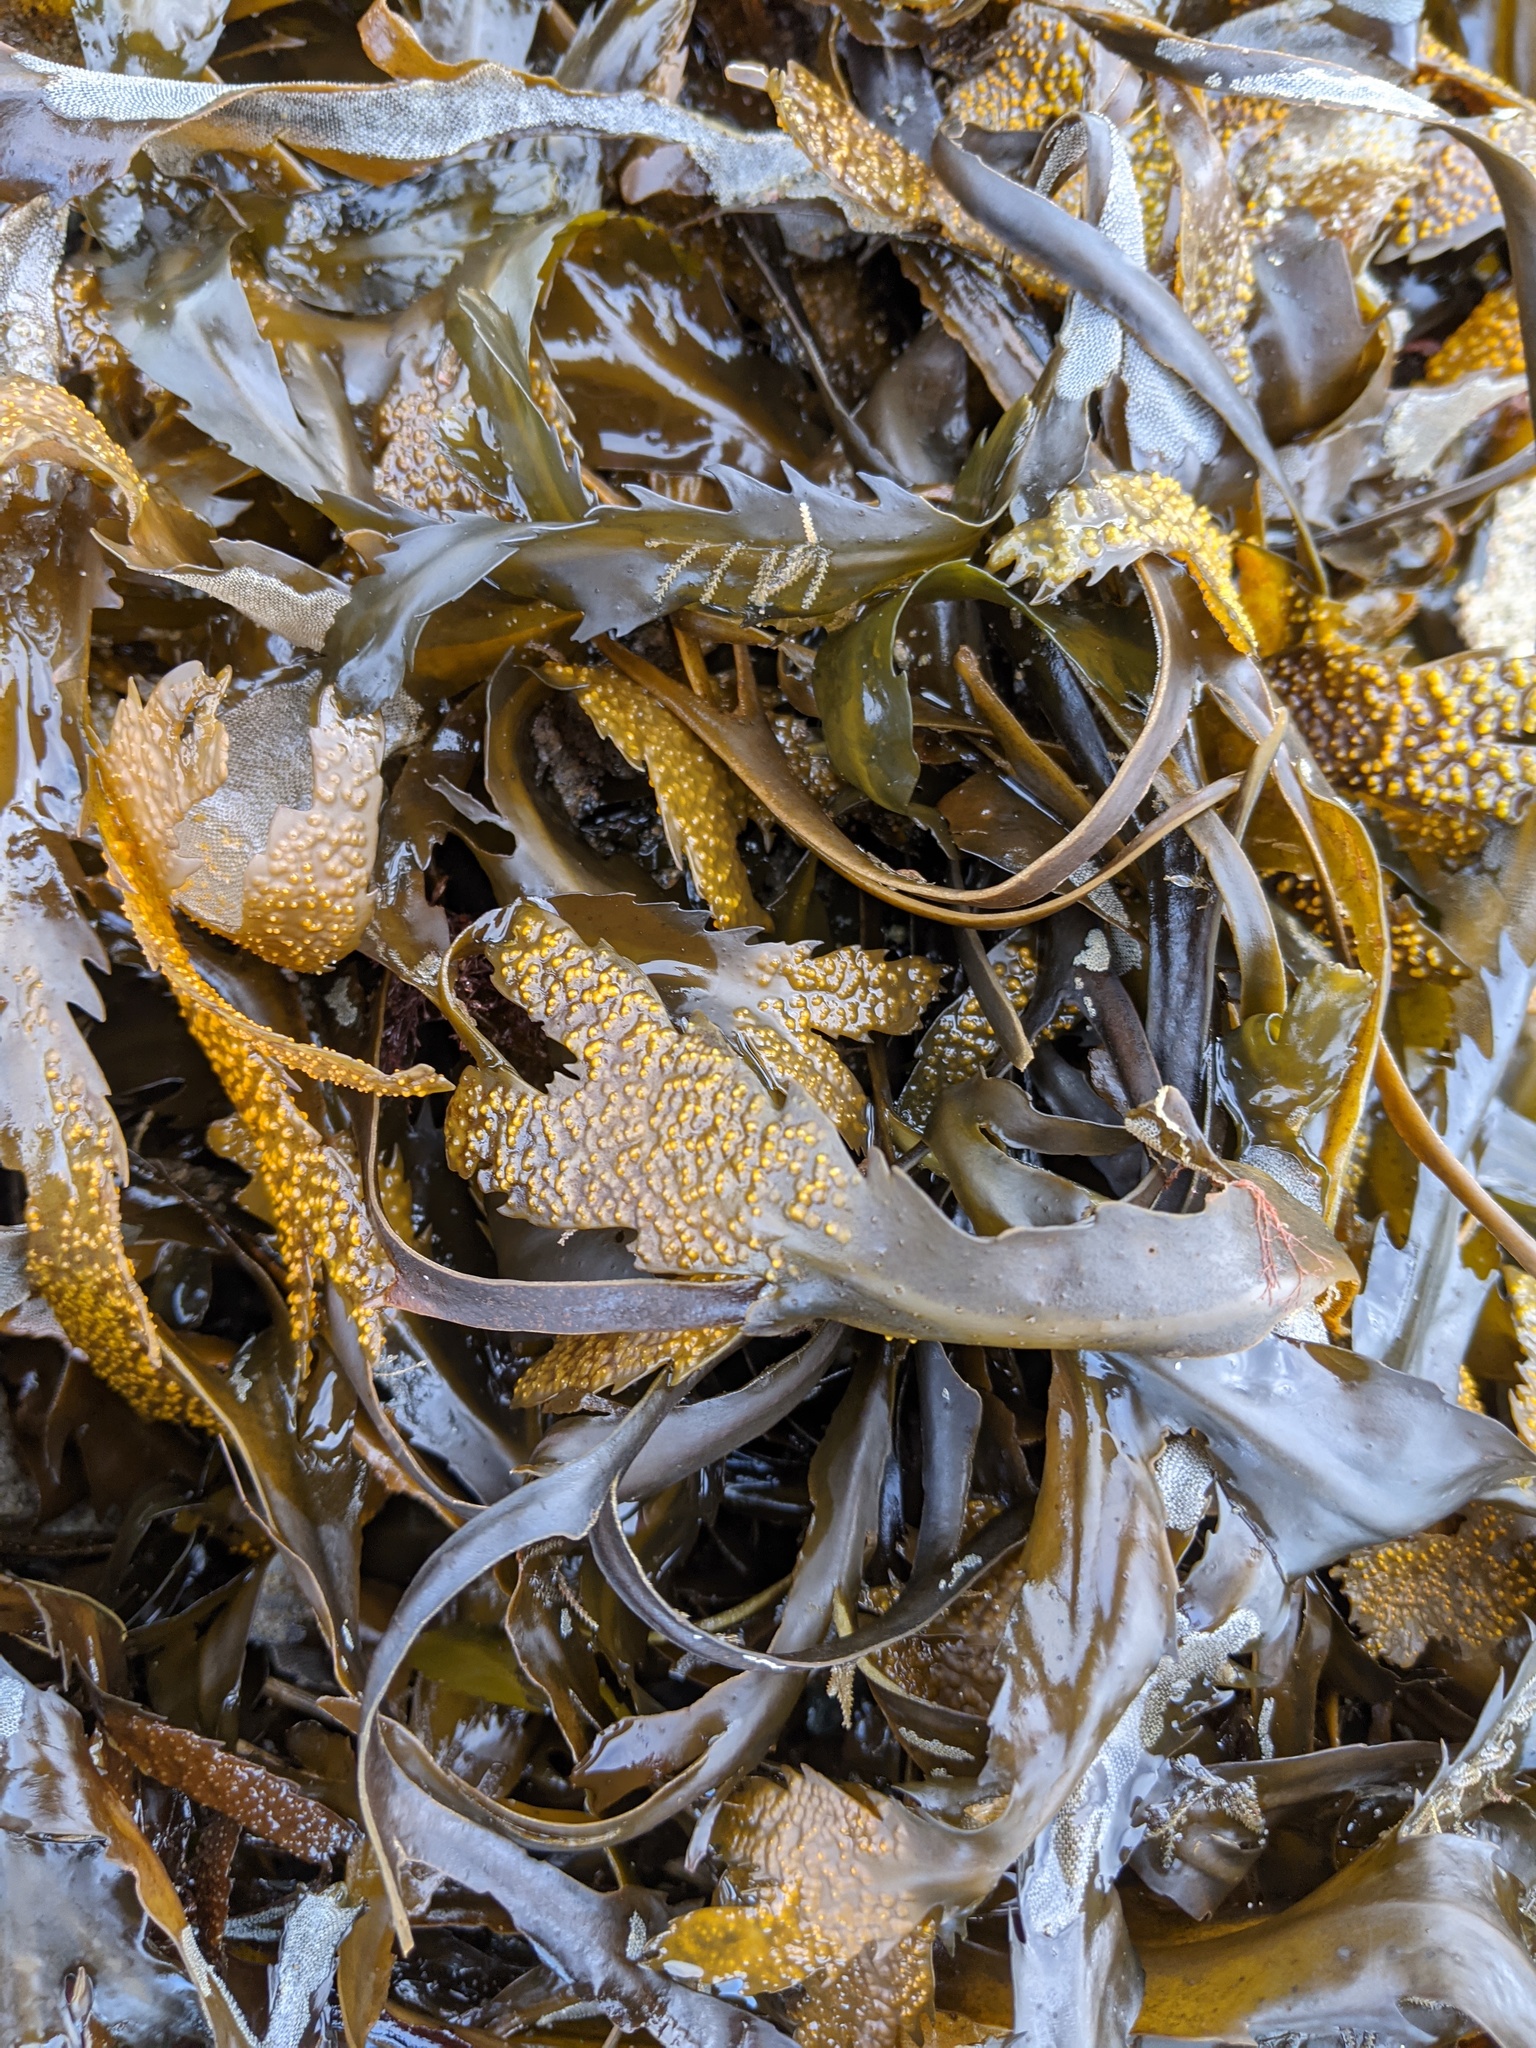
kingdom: Chromista
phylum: Ochrophyta
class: Phaeophyceae
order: Fucales
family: Fucaceae
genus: Fucus
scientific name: Fucus serratus
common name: Toothed wrack
